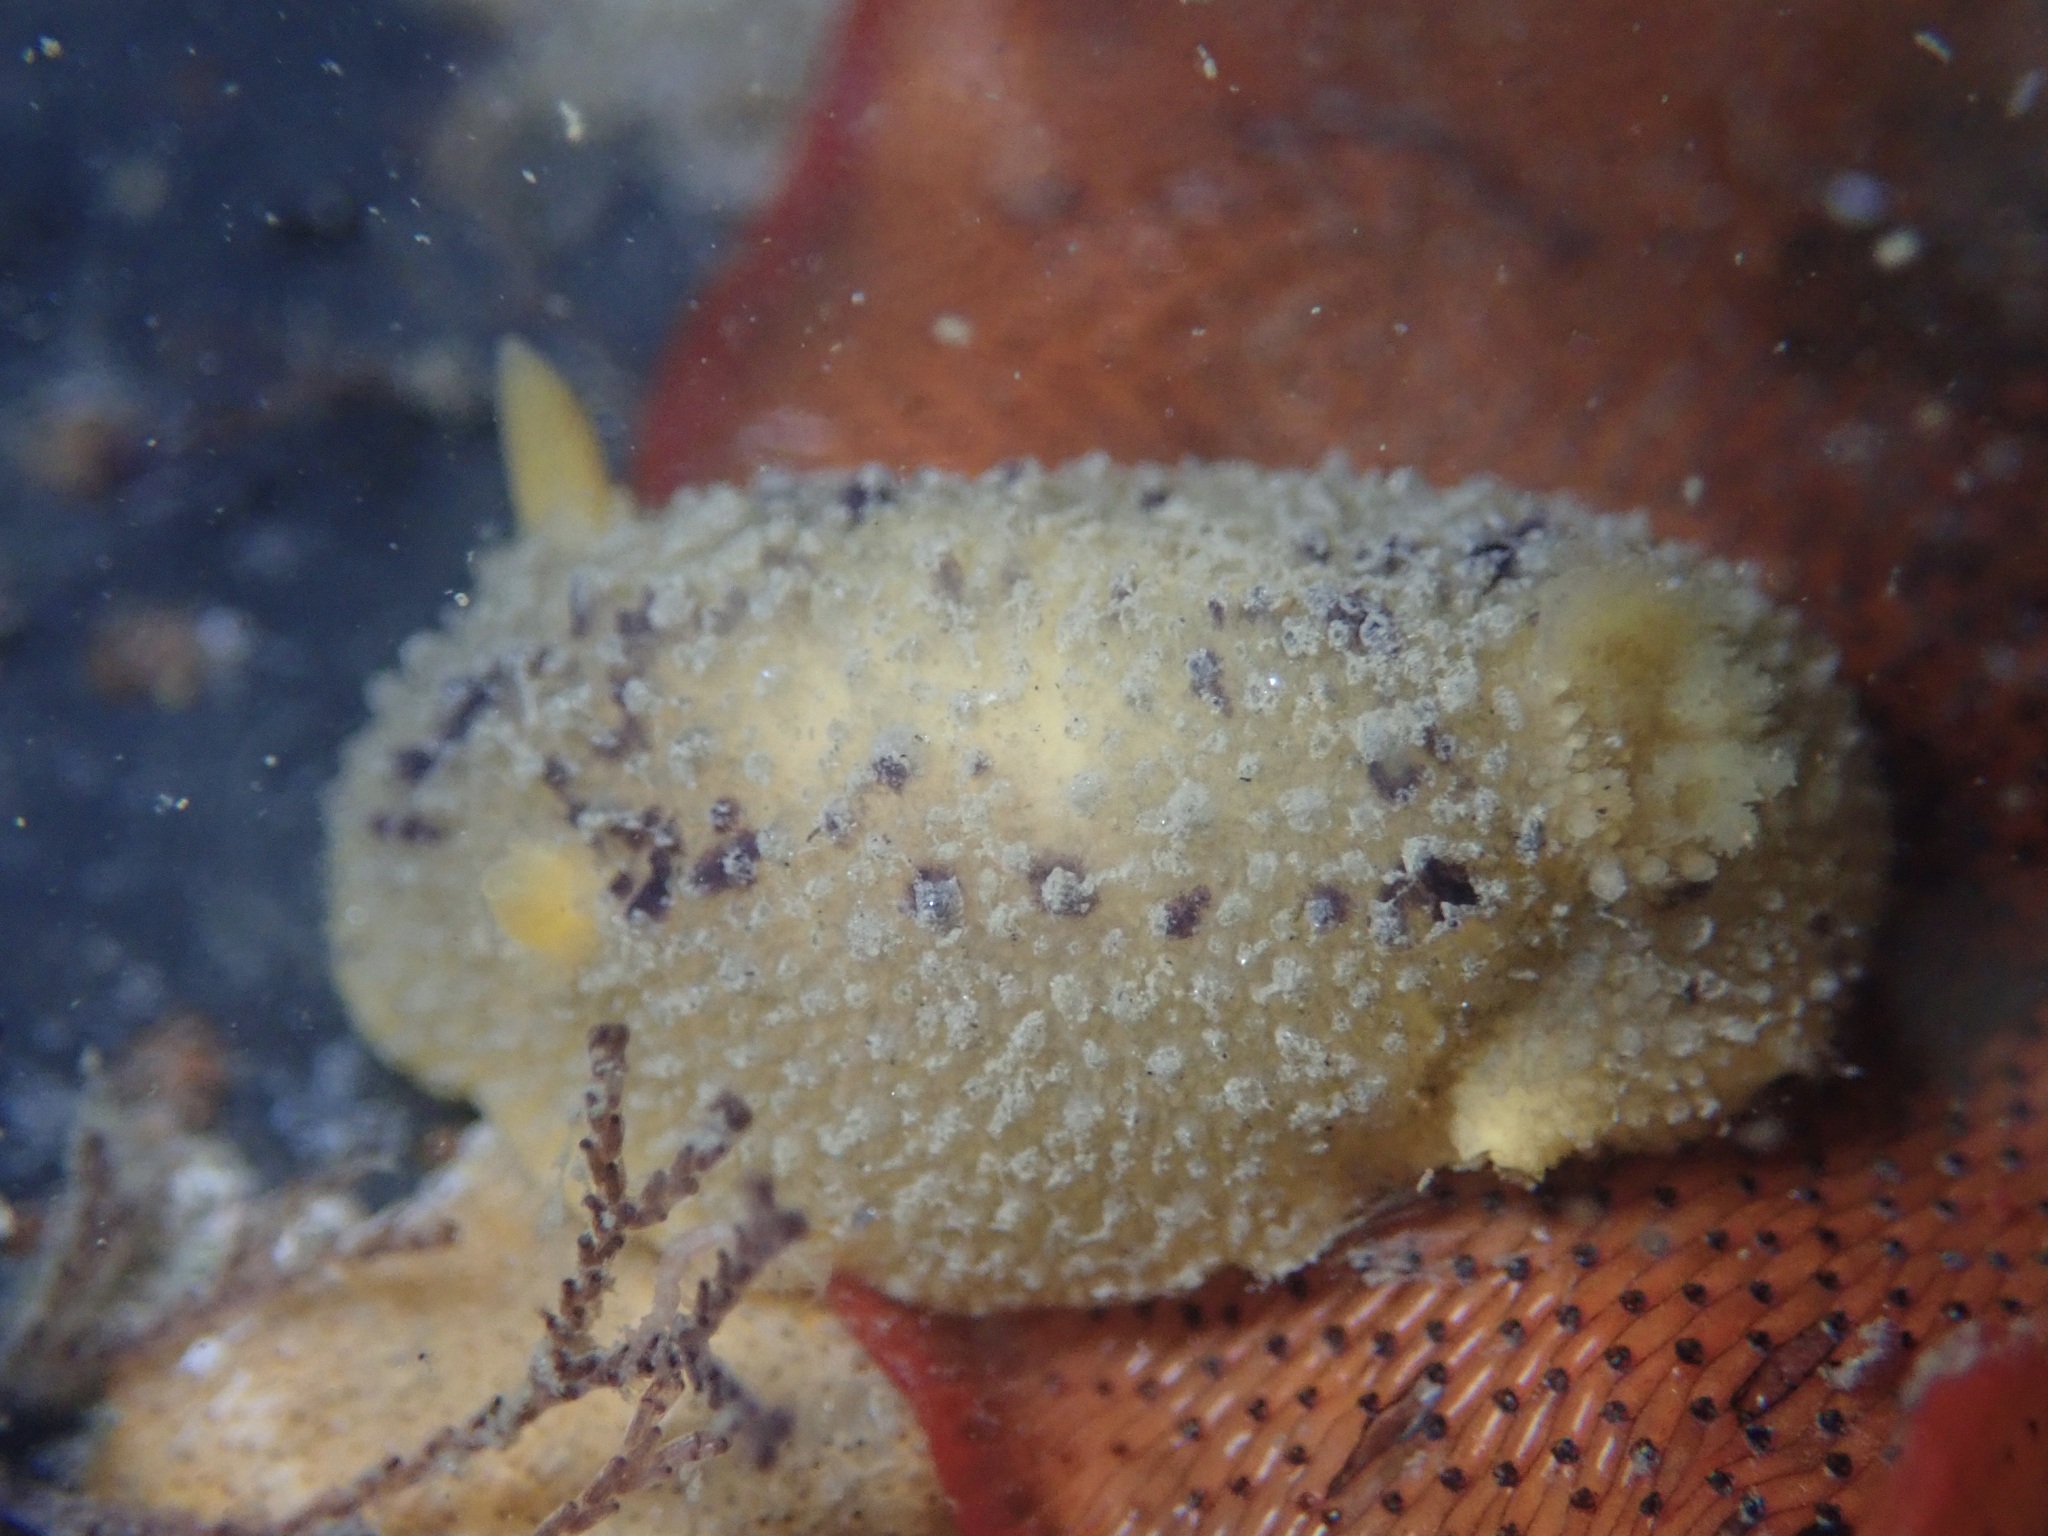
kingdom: Animalia
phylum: Mollusca
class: Gastropoda
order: Nudibranchia
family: Dorididae
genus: Doris
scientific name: Doris montereyensis
